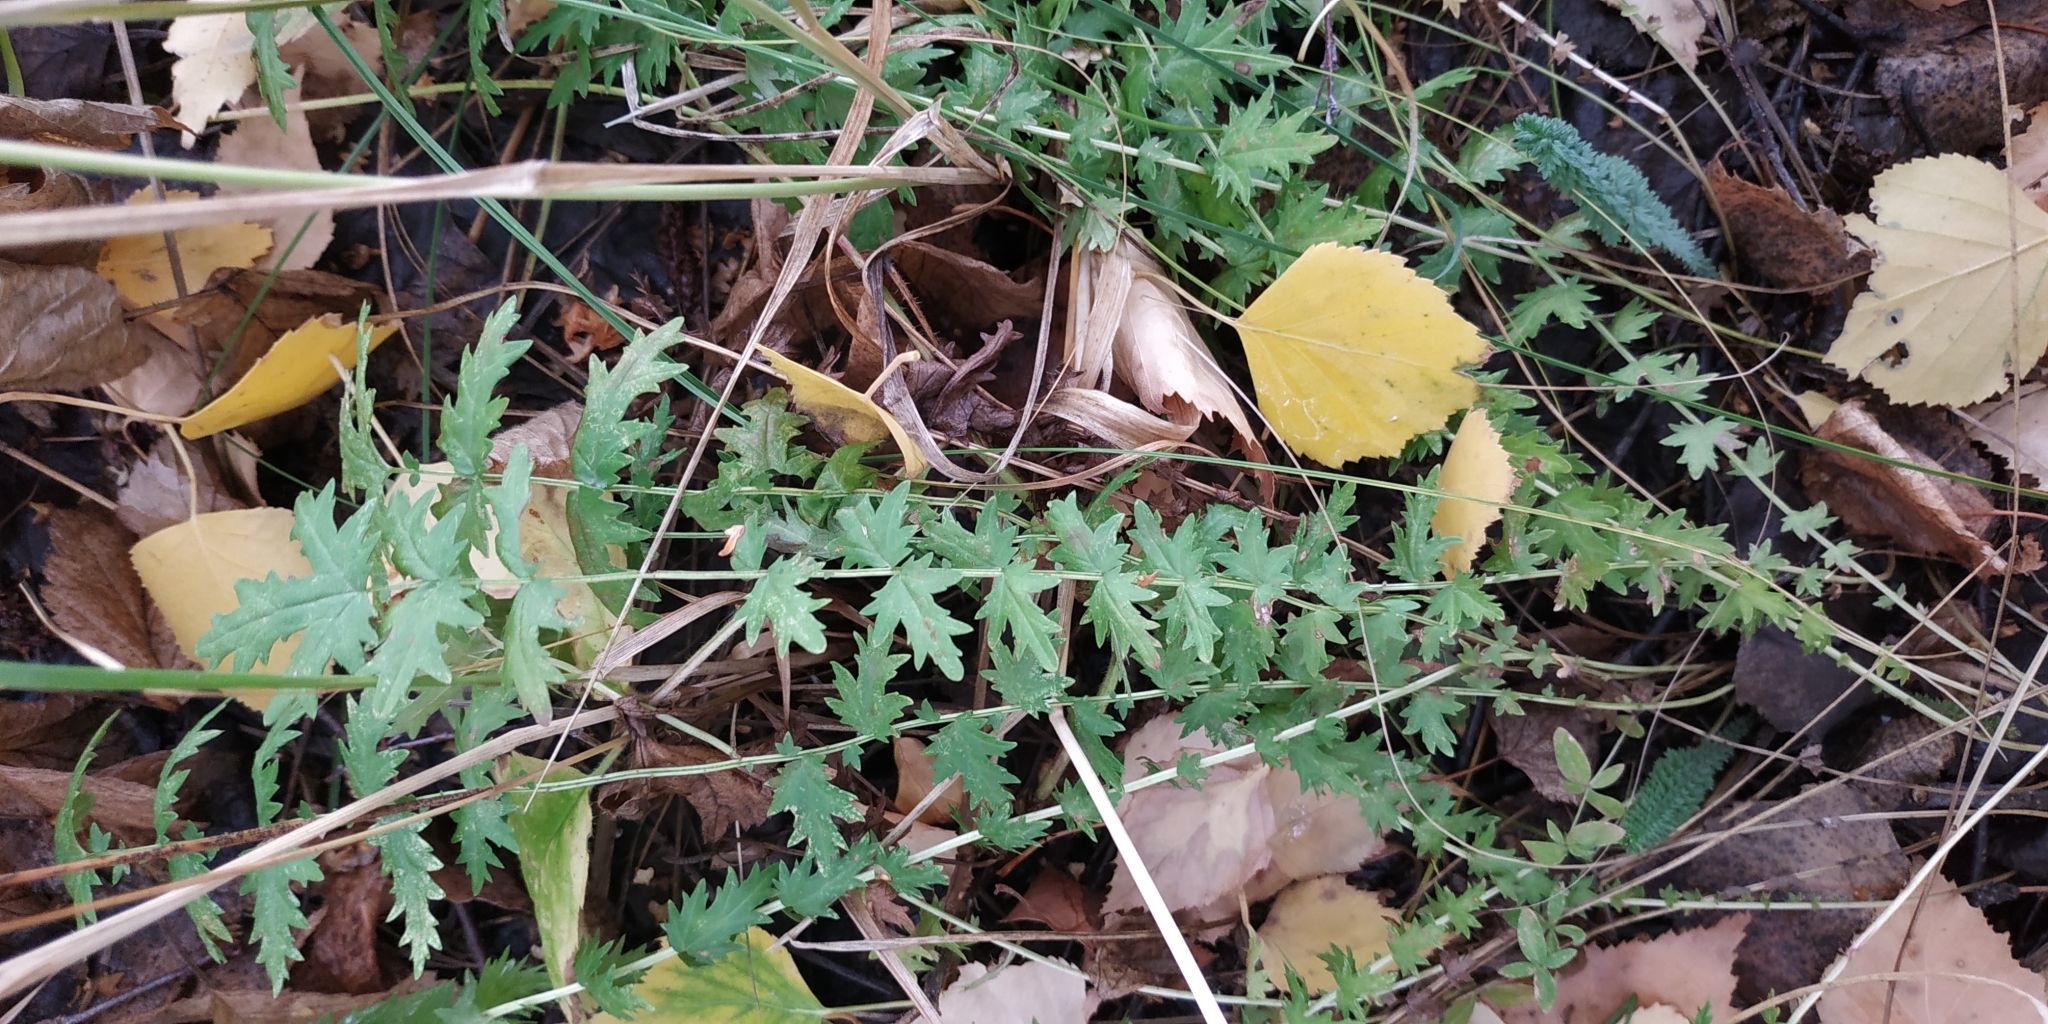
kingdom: Plantae
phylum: Tracheophyta
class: Magnoliopsida
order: Rosales
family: Rosaceae
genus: Filipendula
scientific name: Filipendula vulgaris
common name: Dropwort
